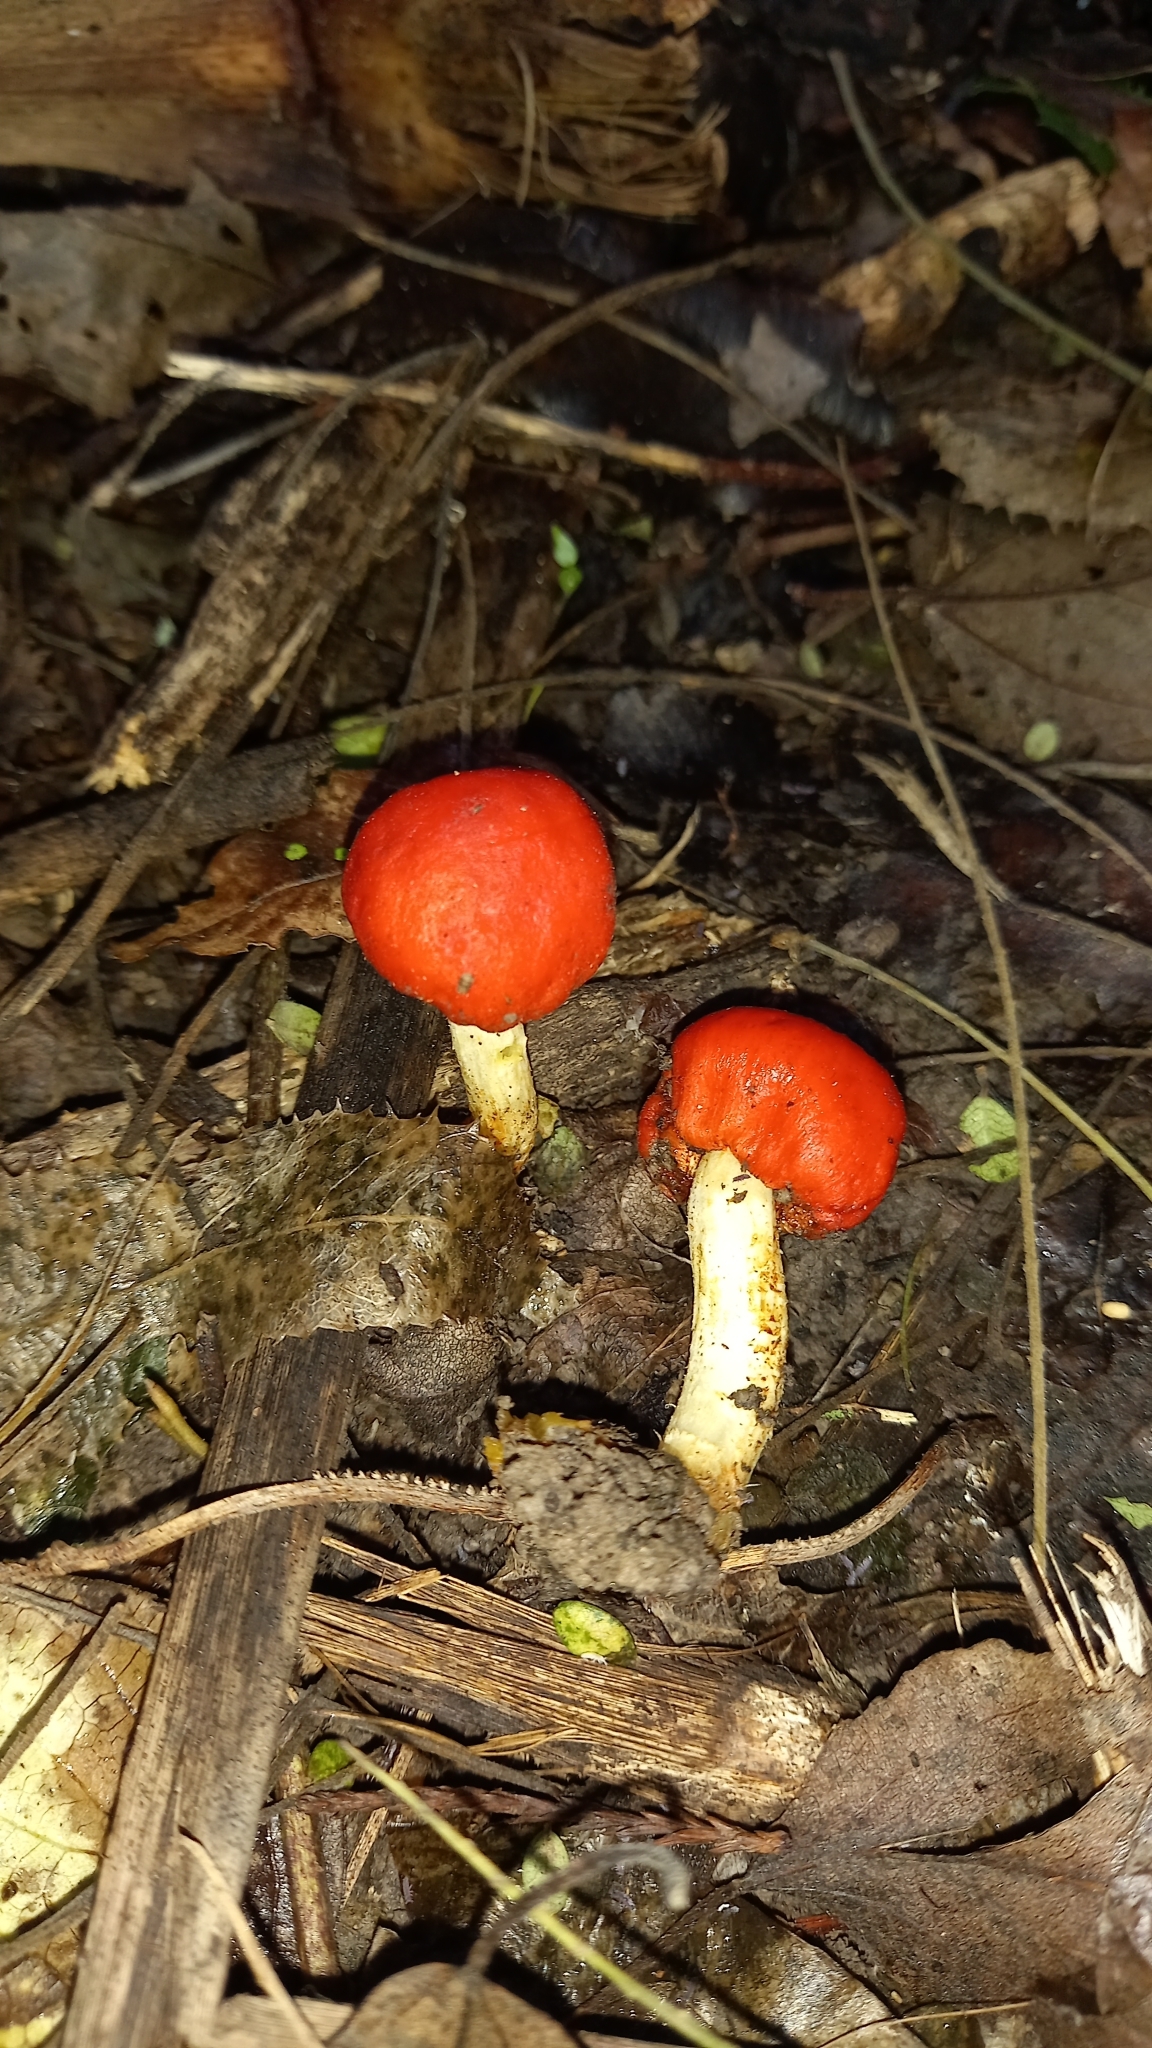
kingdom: Fungi
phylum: Basidiomycota
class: Agaricomycetes
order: Agaricales
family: Strophariaceae
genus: Leratiomyces
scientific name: Leratiomyces erythrocephalus
